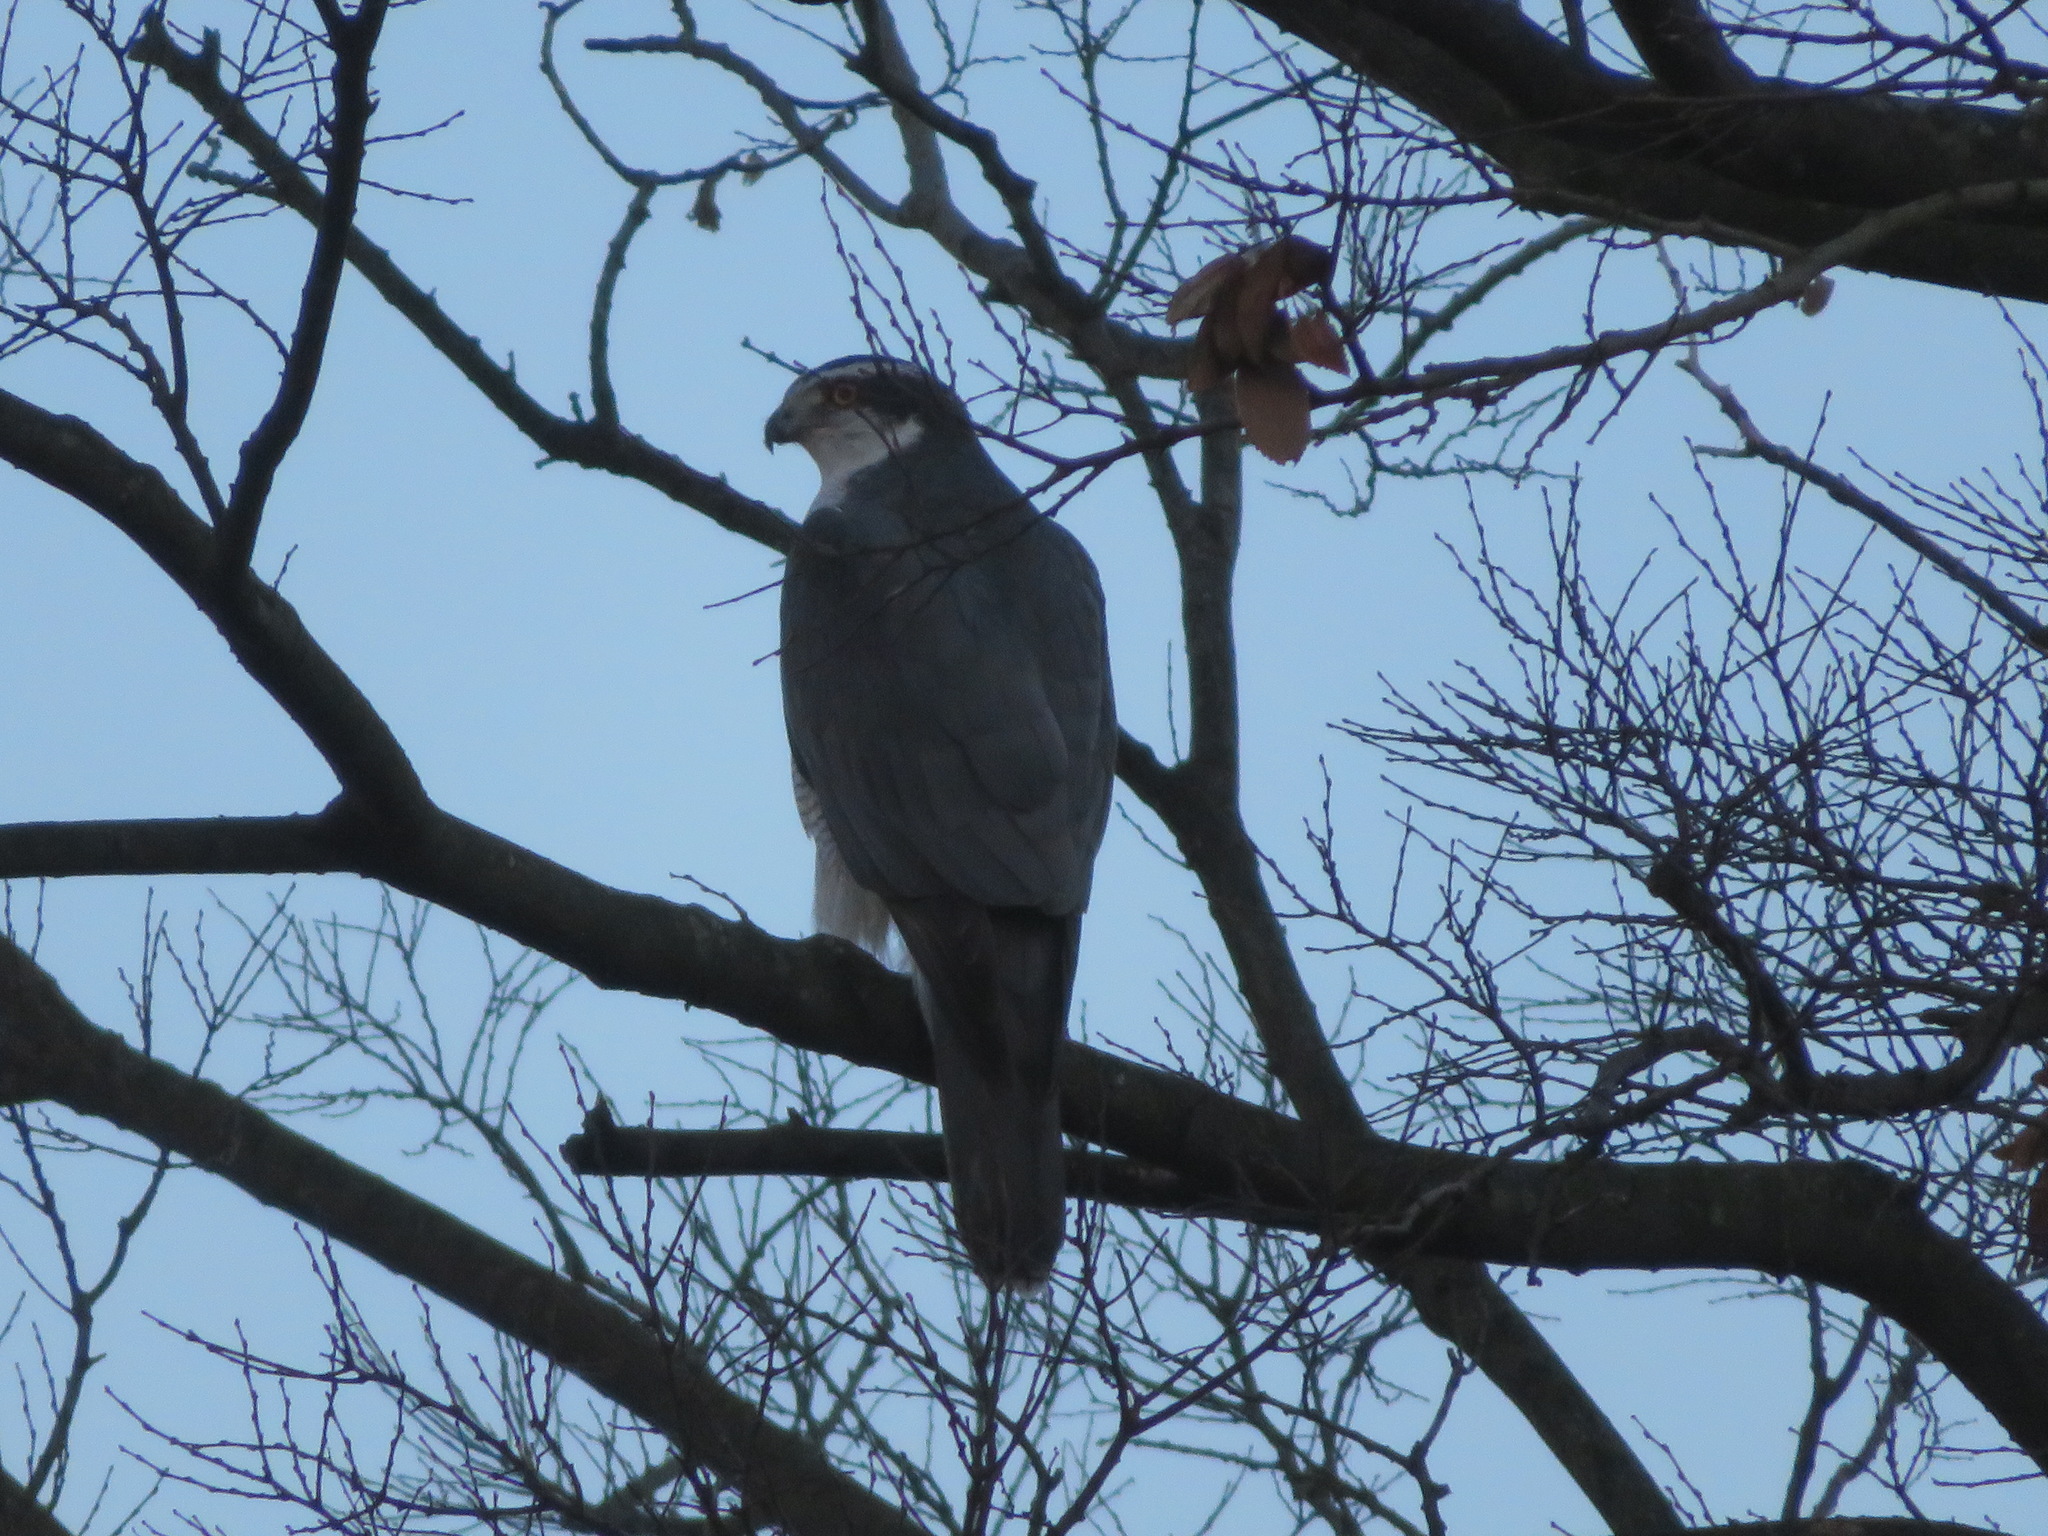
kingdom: Animalia
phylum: Chordata
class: Aves
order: Accipitriformes
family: Accipitridae
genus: Accipiter
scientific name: Accipiter gentilis
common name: Northern goshawk
